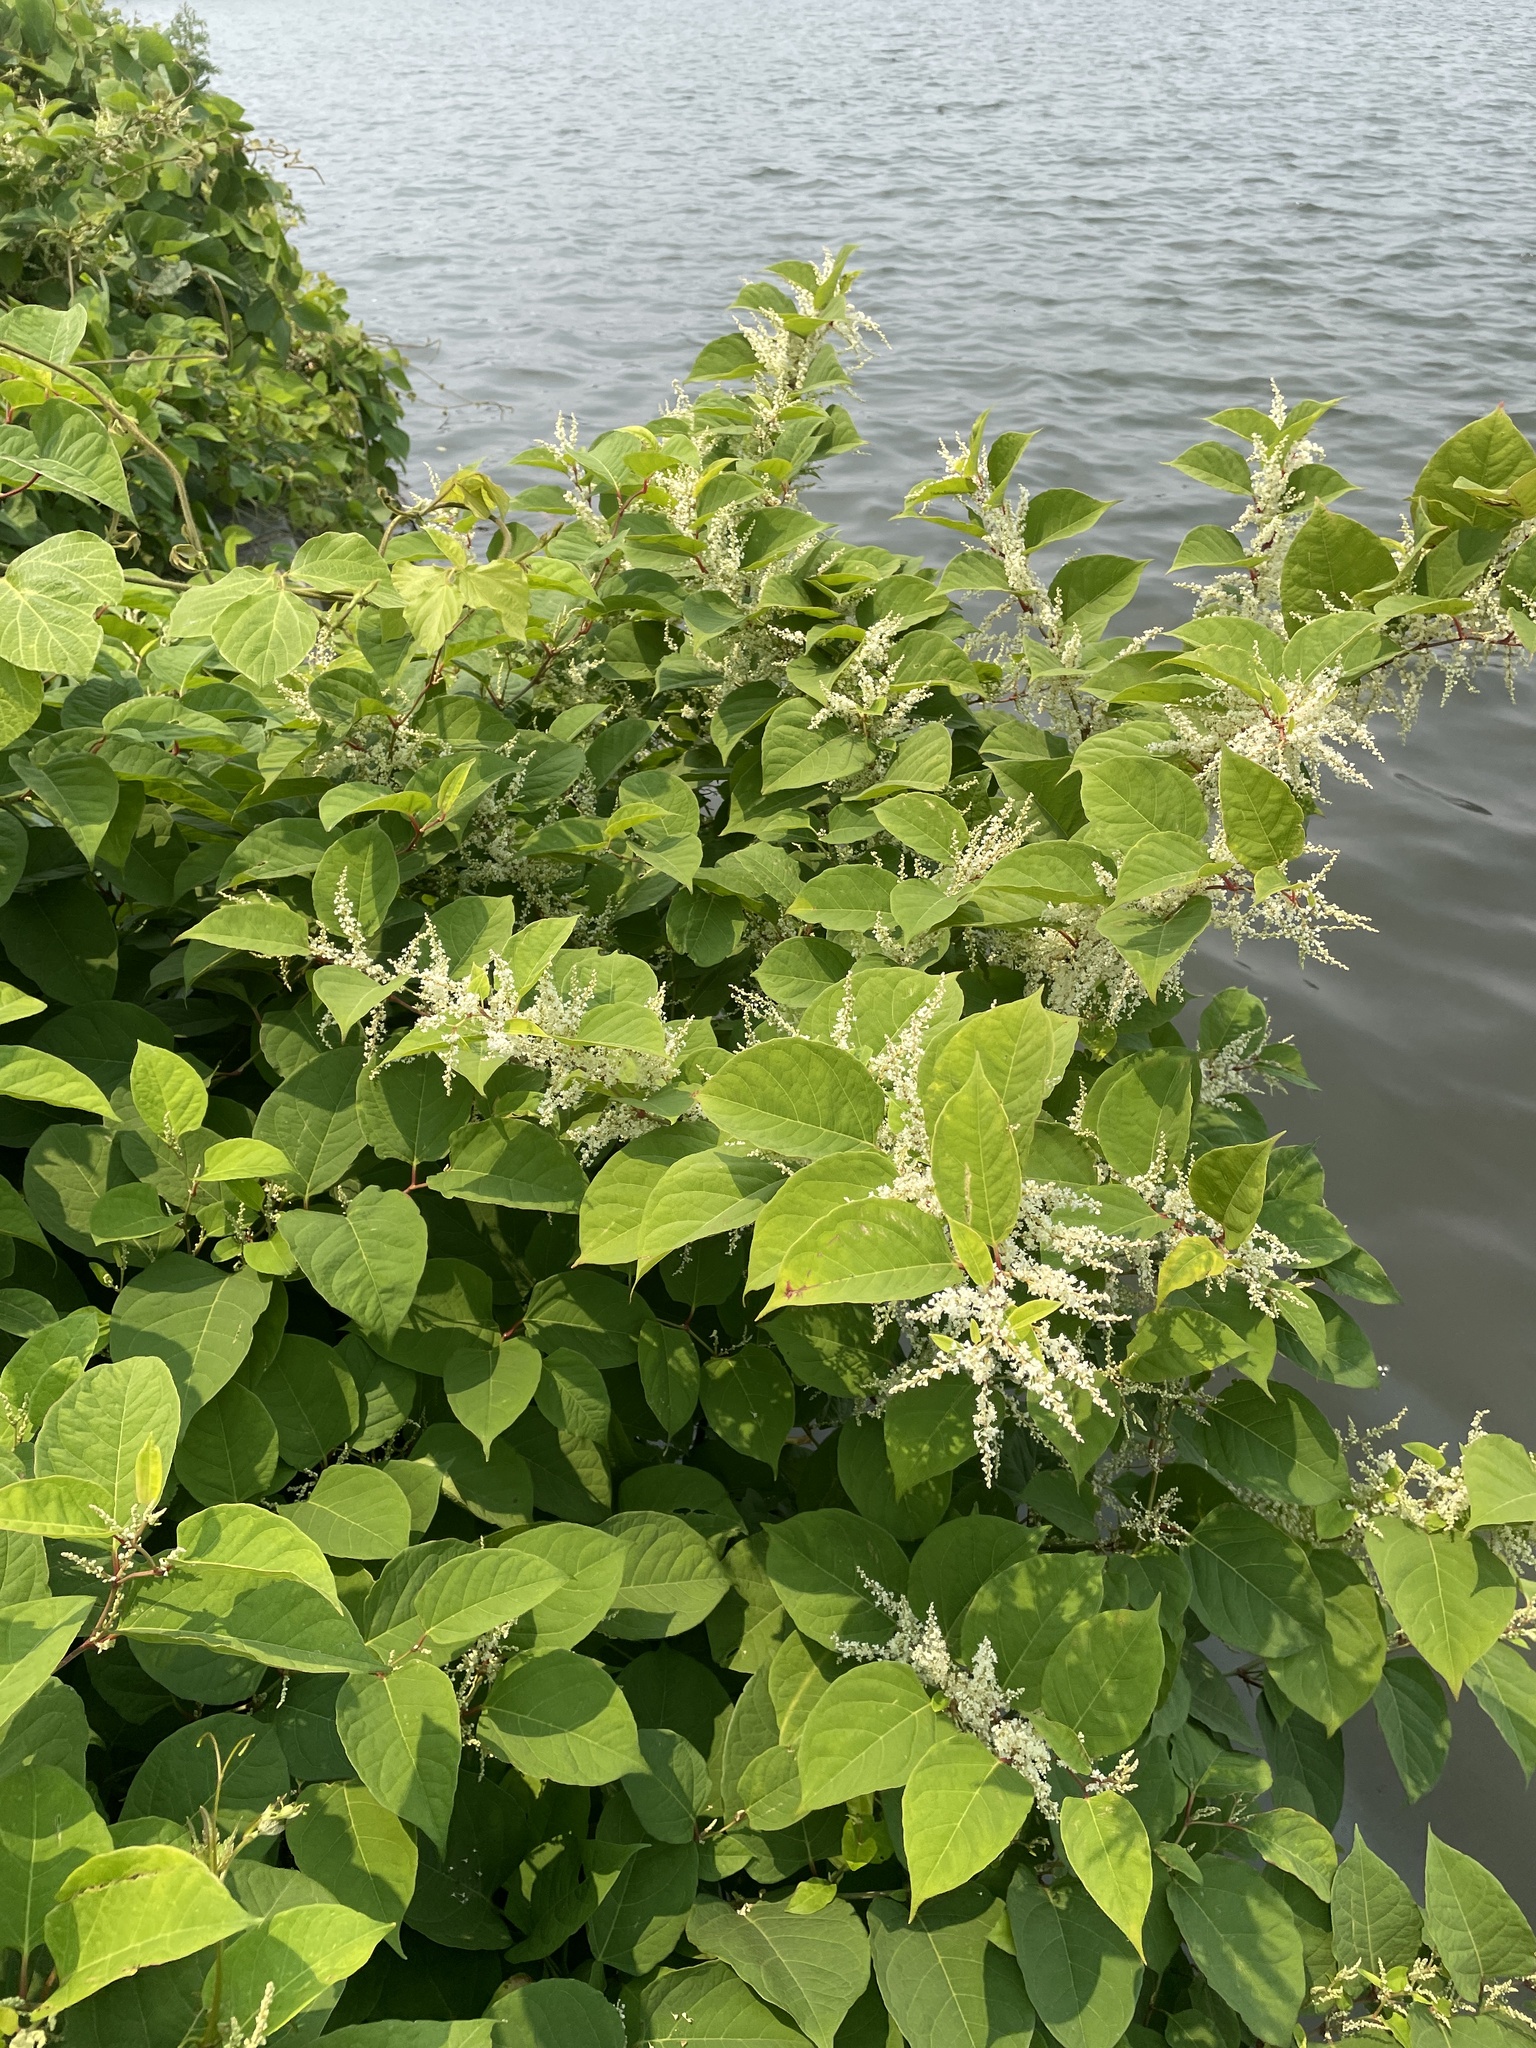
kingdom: Plantae
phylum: Tracheophyta
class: Magnoliopsida
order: Caryophyllales
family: Polygonaceae
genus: Reynoutria
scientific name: Reynoutria japonica
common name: Japanese knotweed
